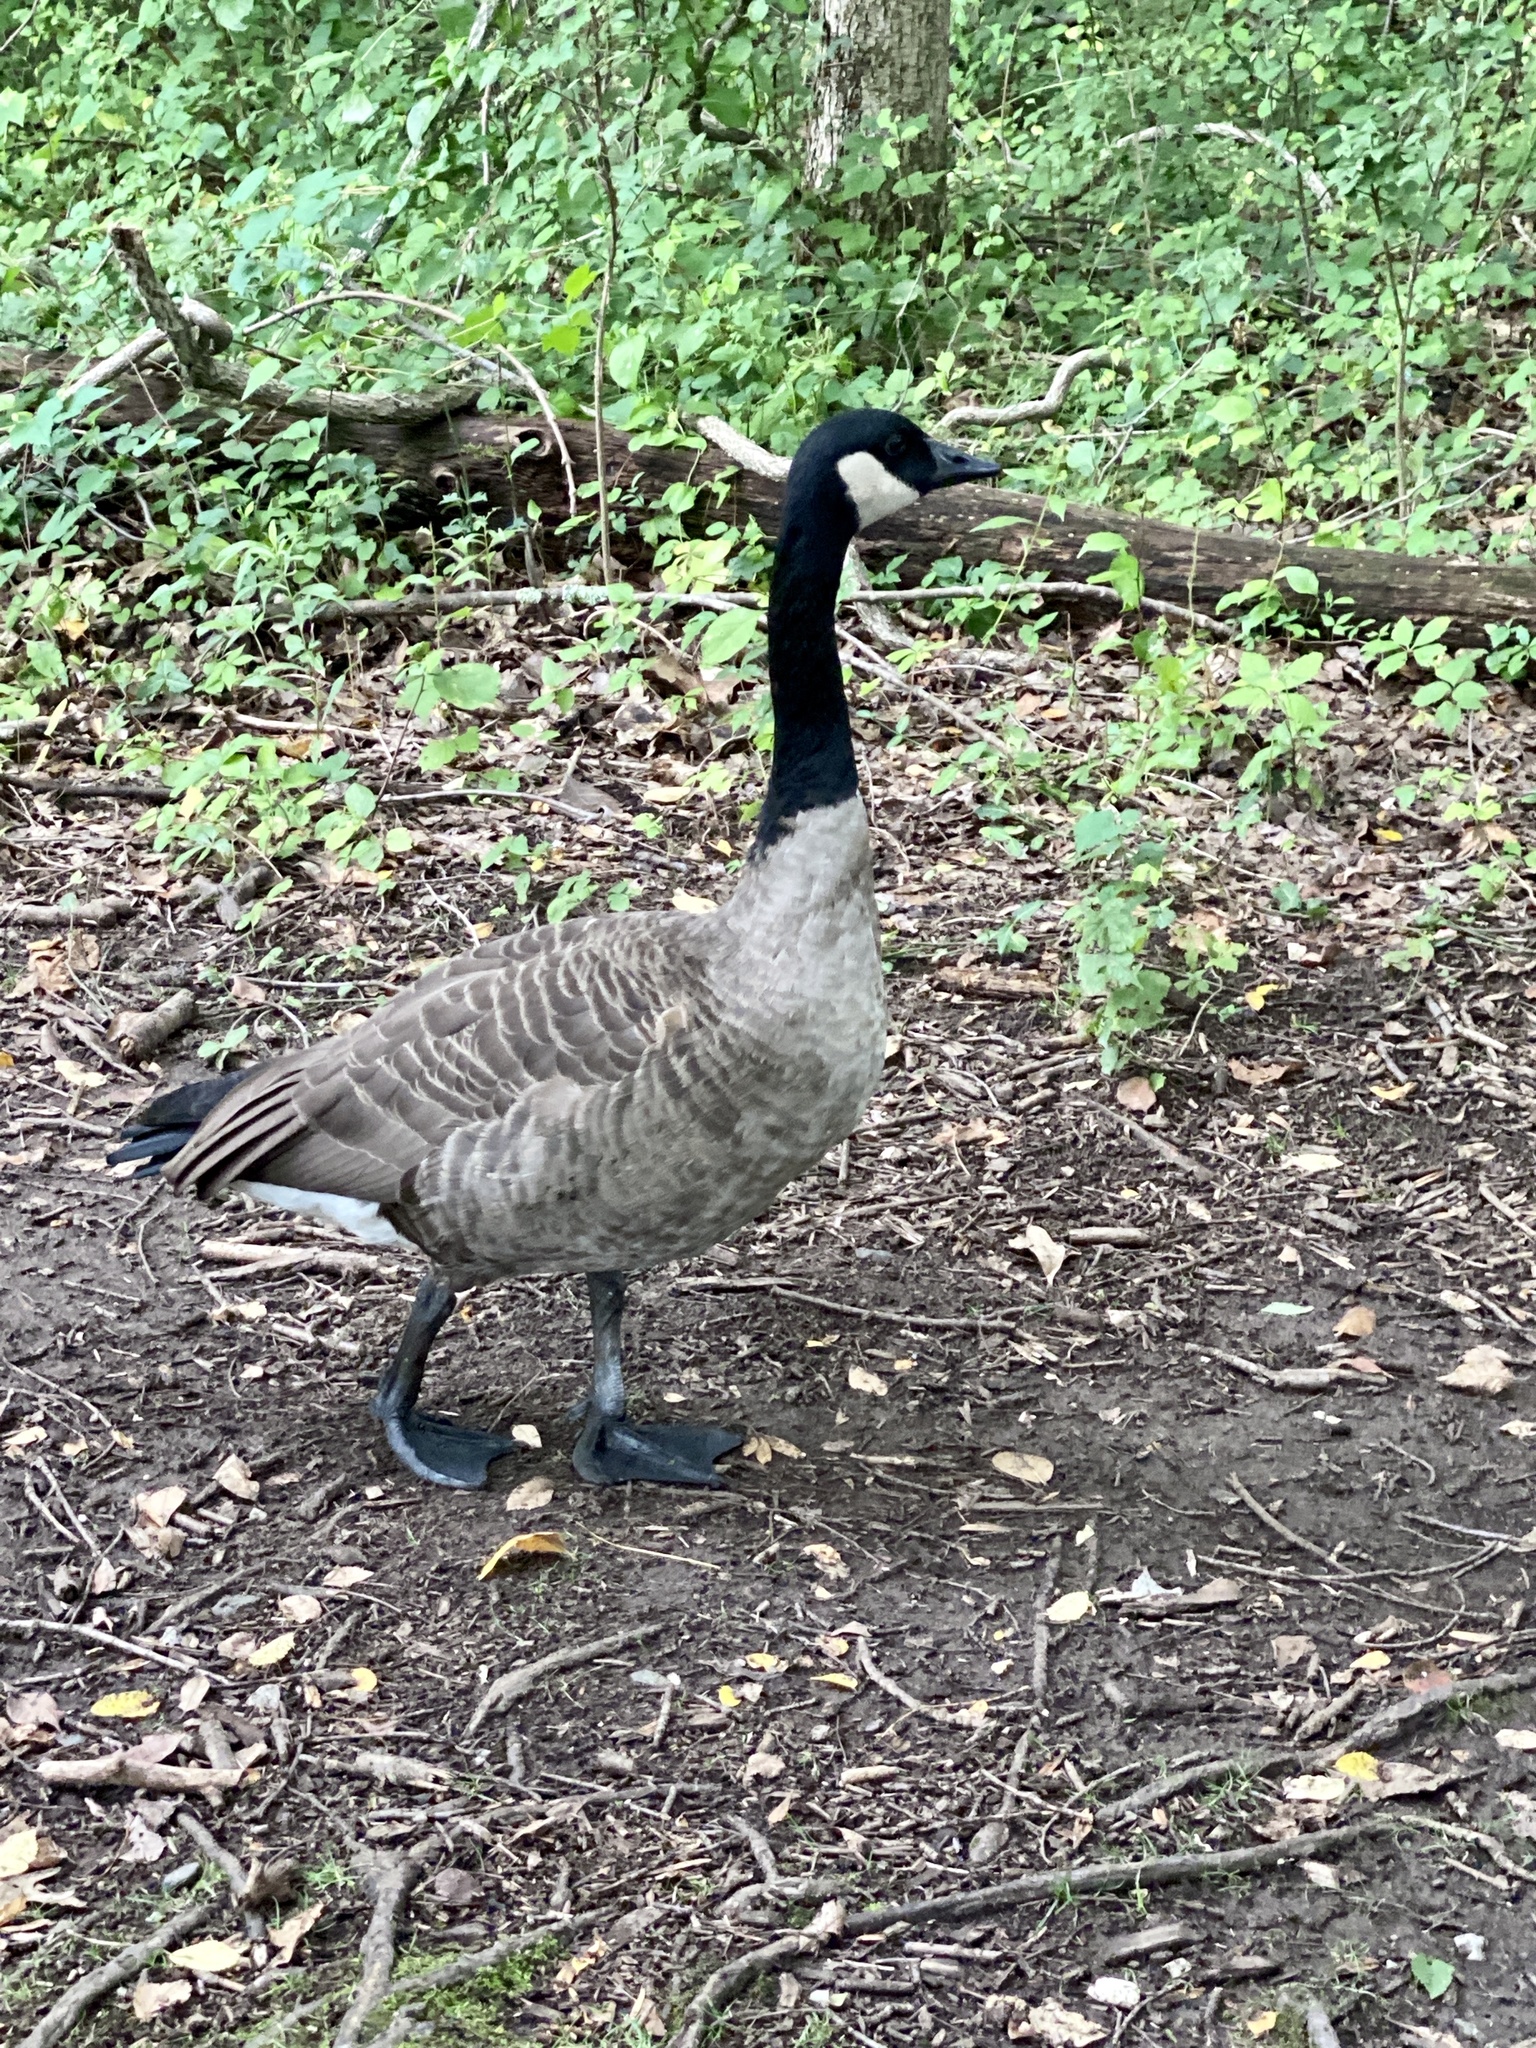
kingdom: Animalia
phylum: Chordata
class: Aves
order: Anseriformes
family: Anatidae
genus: Branta
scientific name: Branta canadensis
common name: Canada goose
